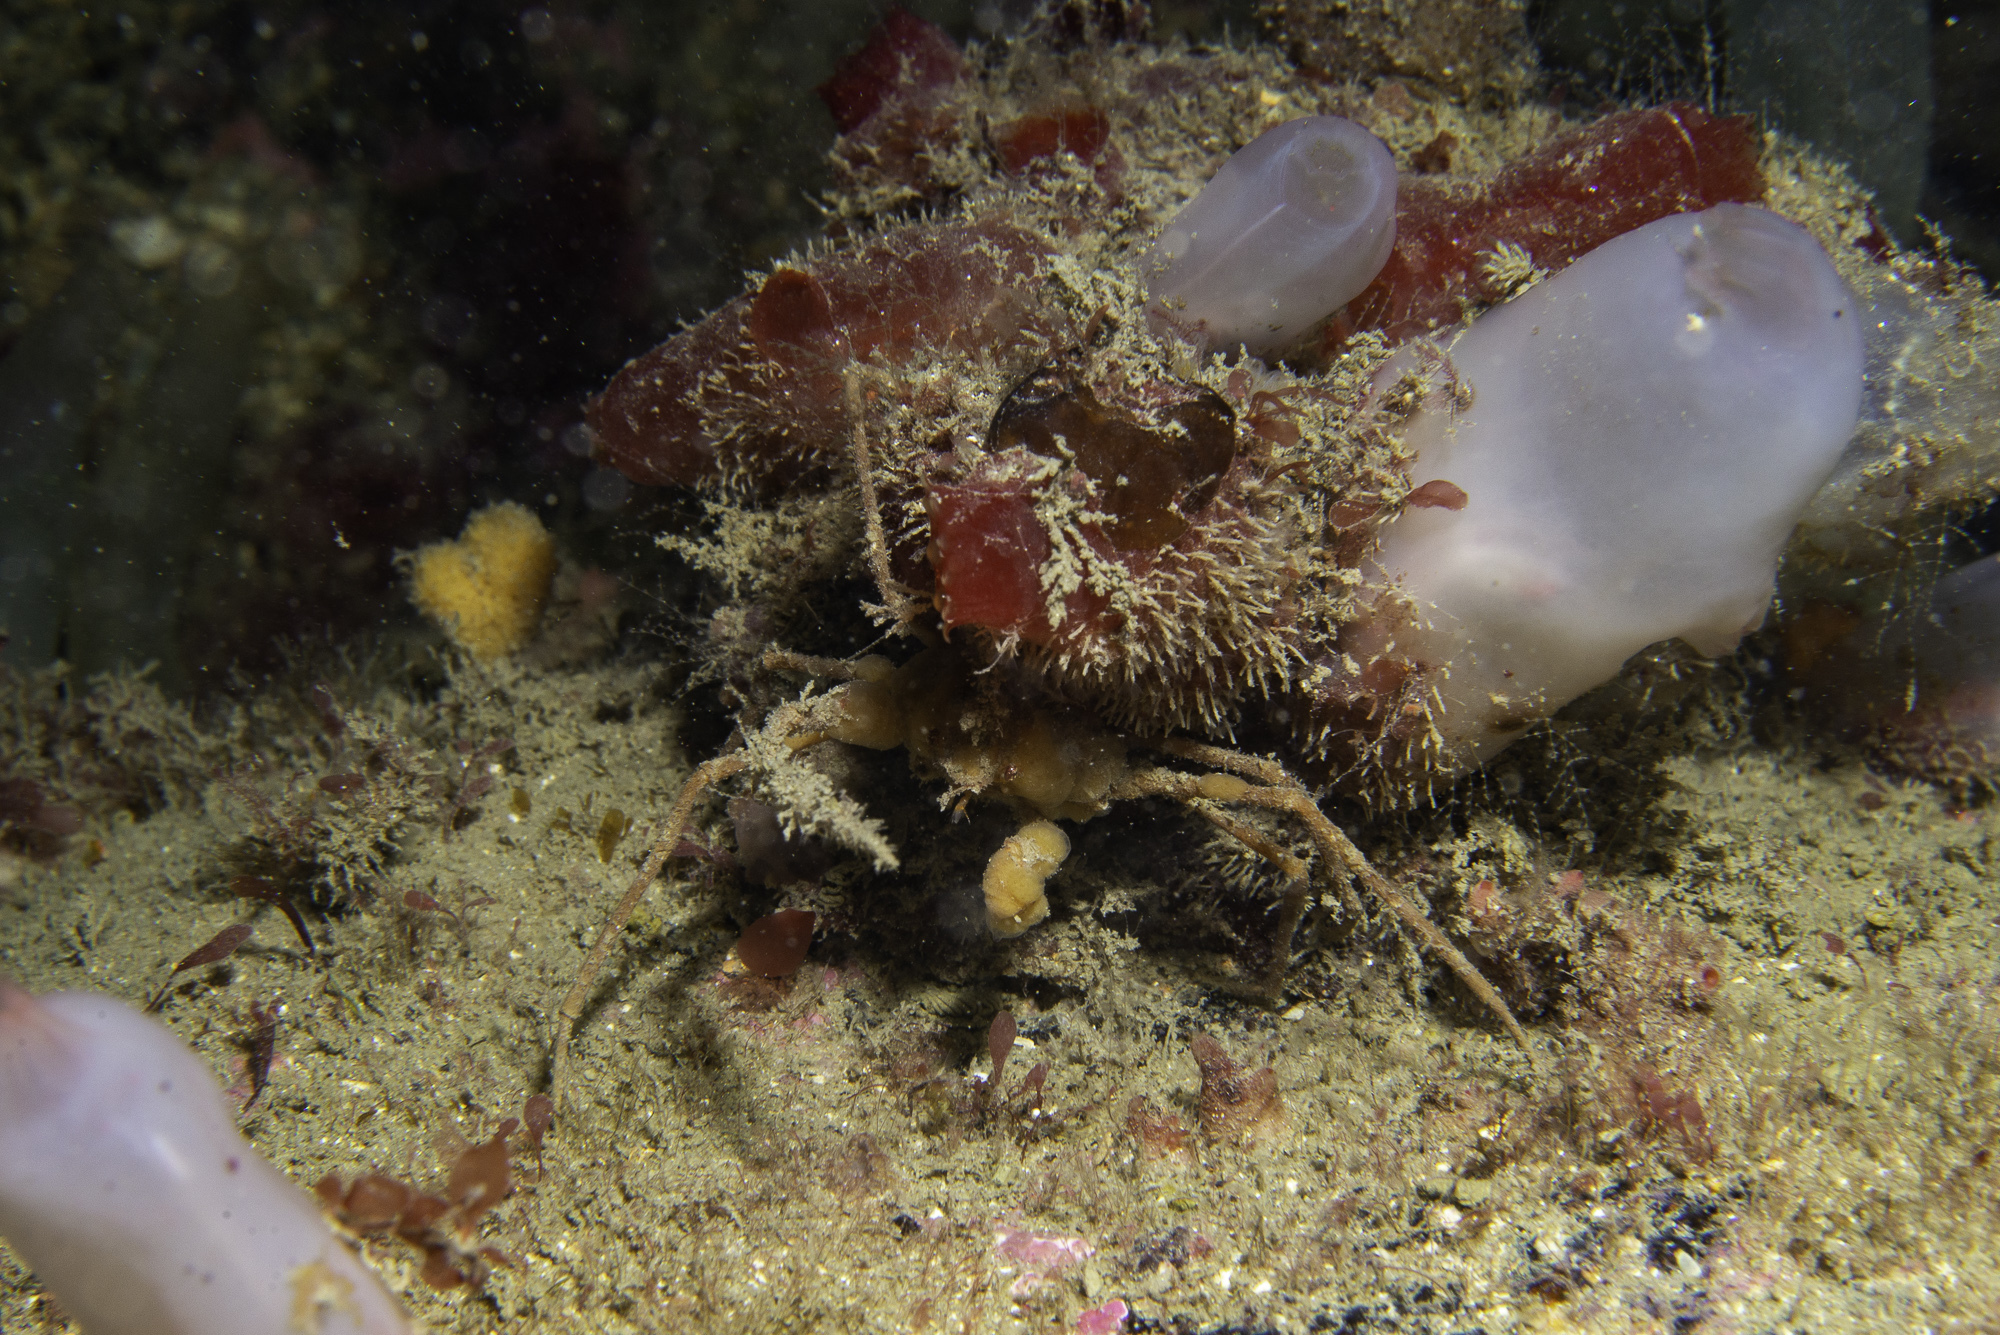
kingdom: Animalia
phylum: Arthropoda
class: Malacostraca
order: Decapoda
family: Inachidae
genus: Inachus
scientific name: Inachus phalangium
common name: Leach's spider crab
